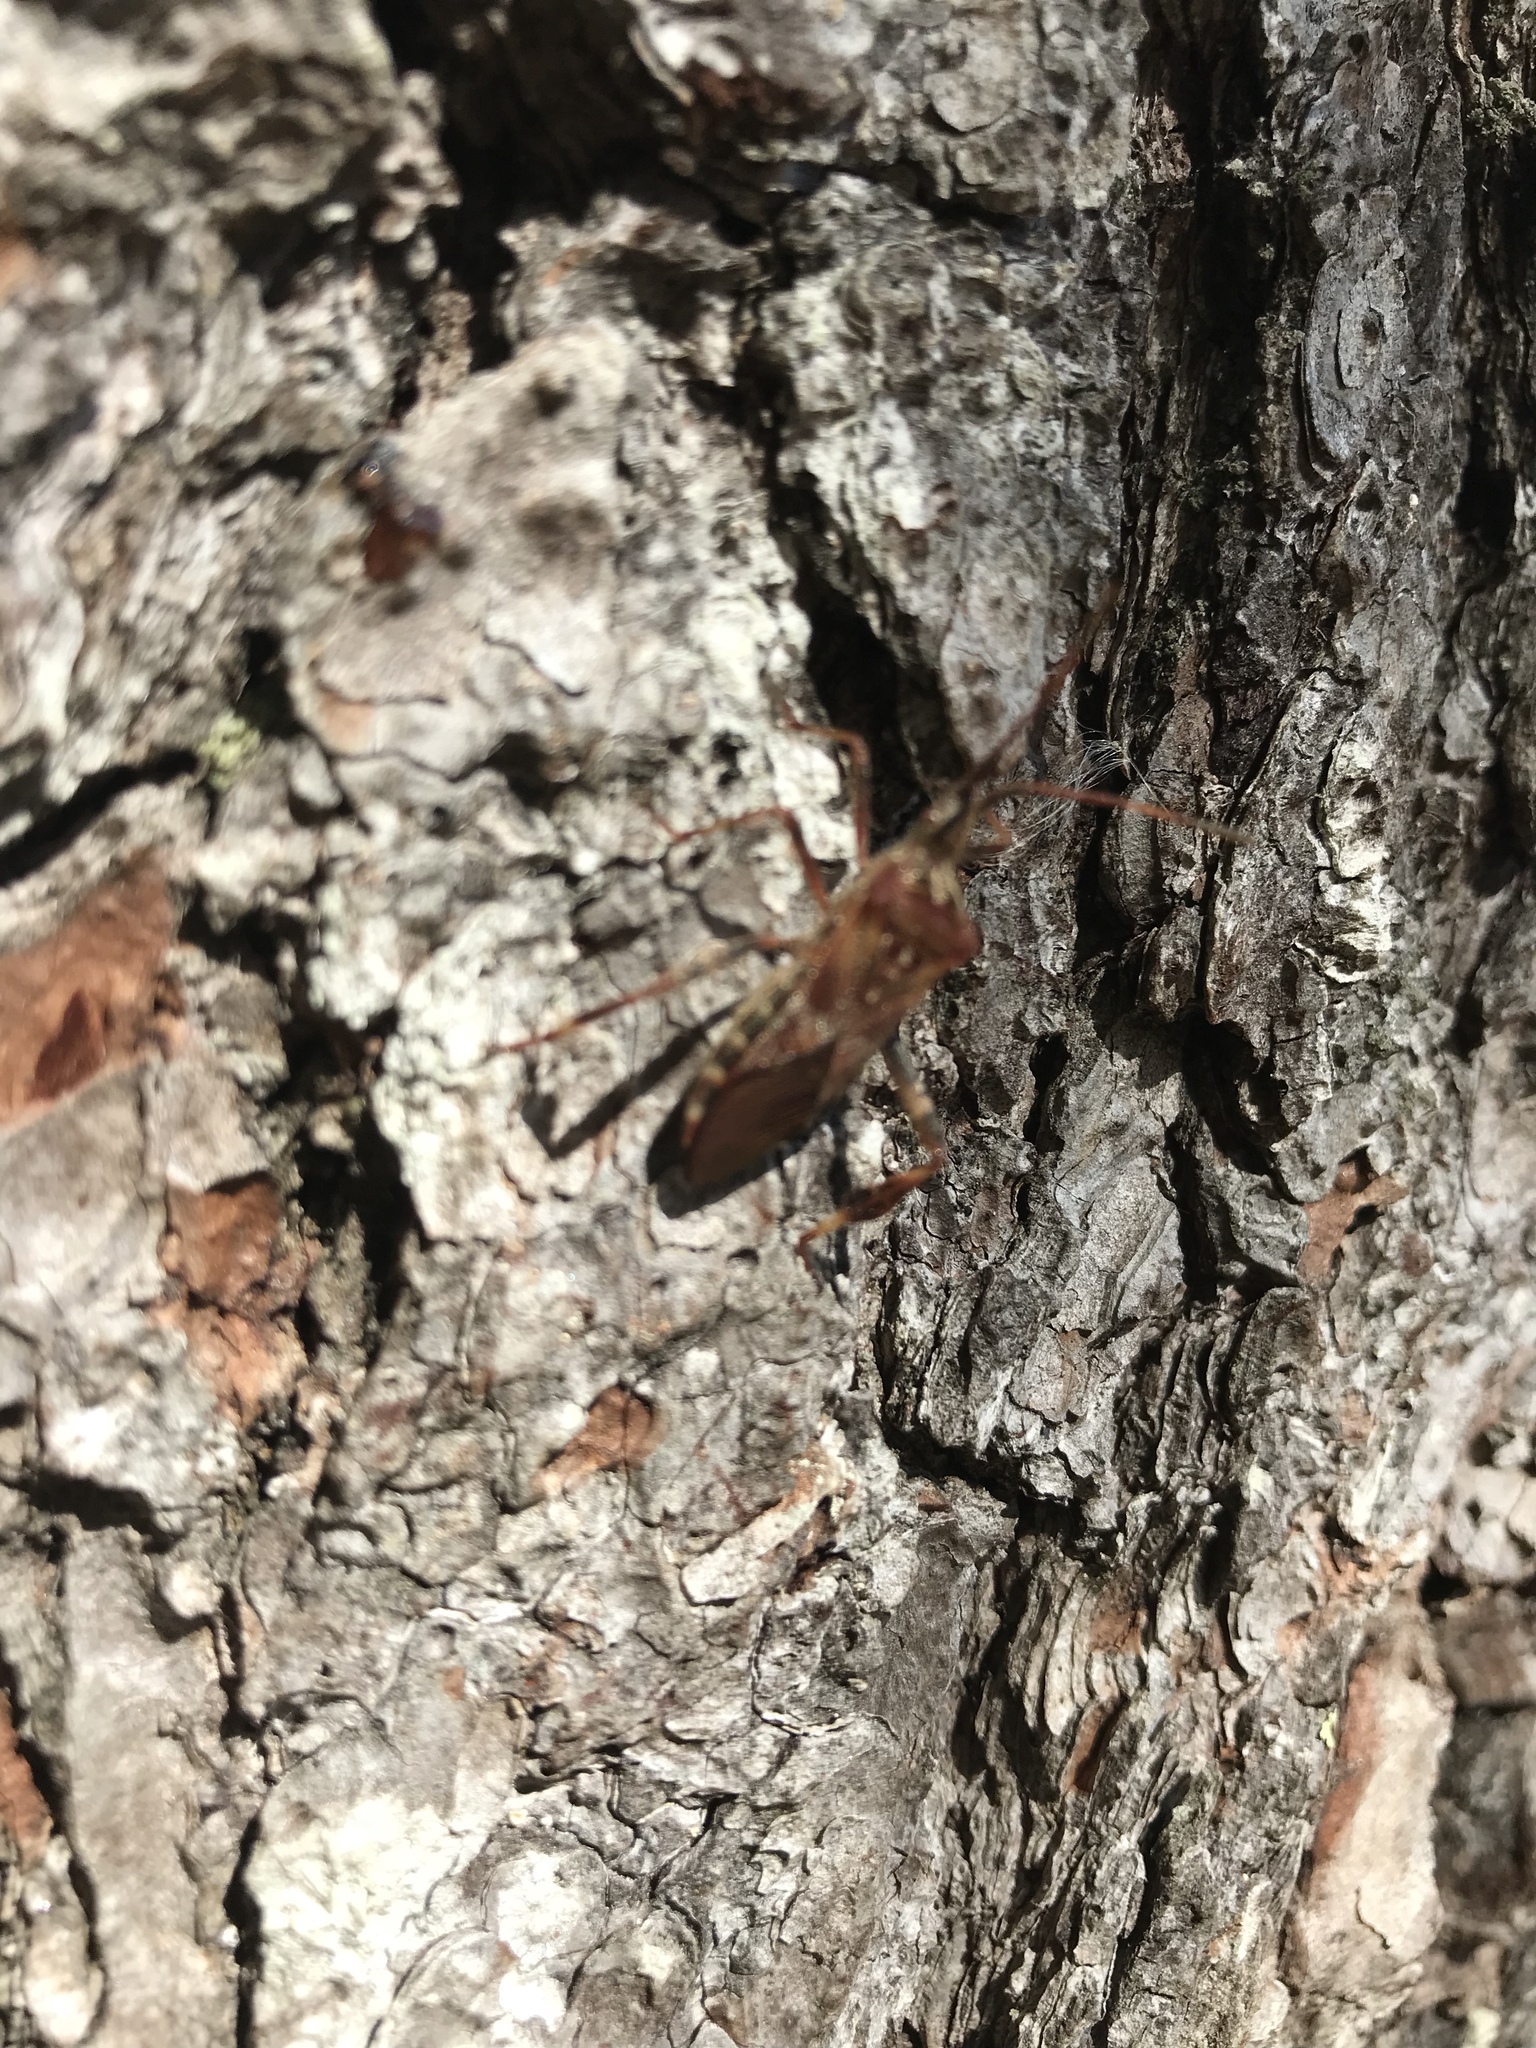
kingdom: Animalia
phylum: Arthropoda
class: Insecta
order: Hemiptera
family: Coreidae
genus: Leptoglossus
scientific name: Leptoglossus occidentalis
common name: Western conifer-seed bug
